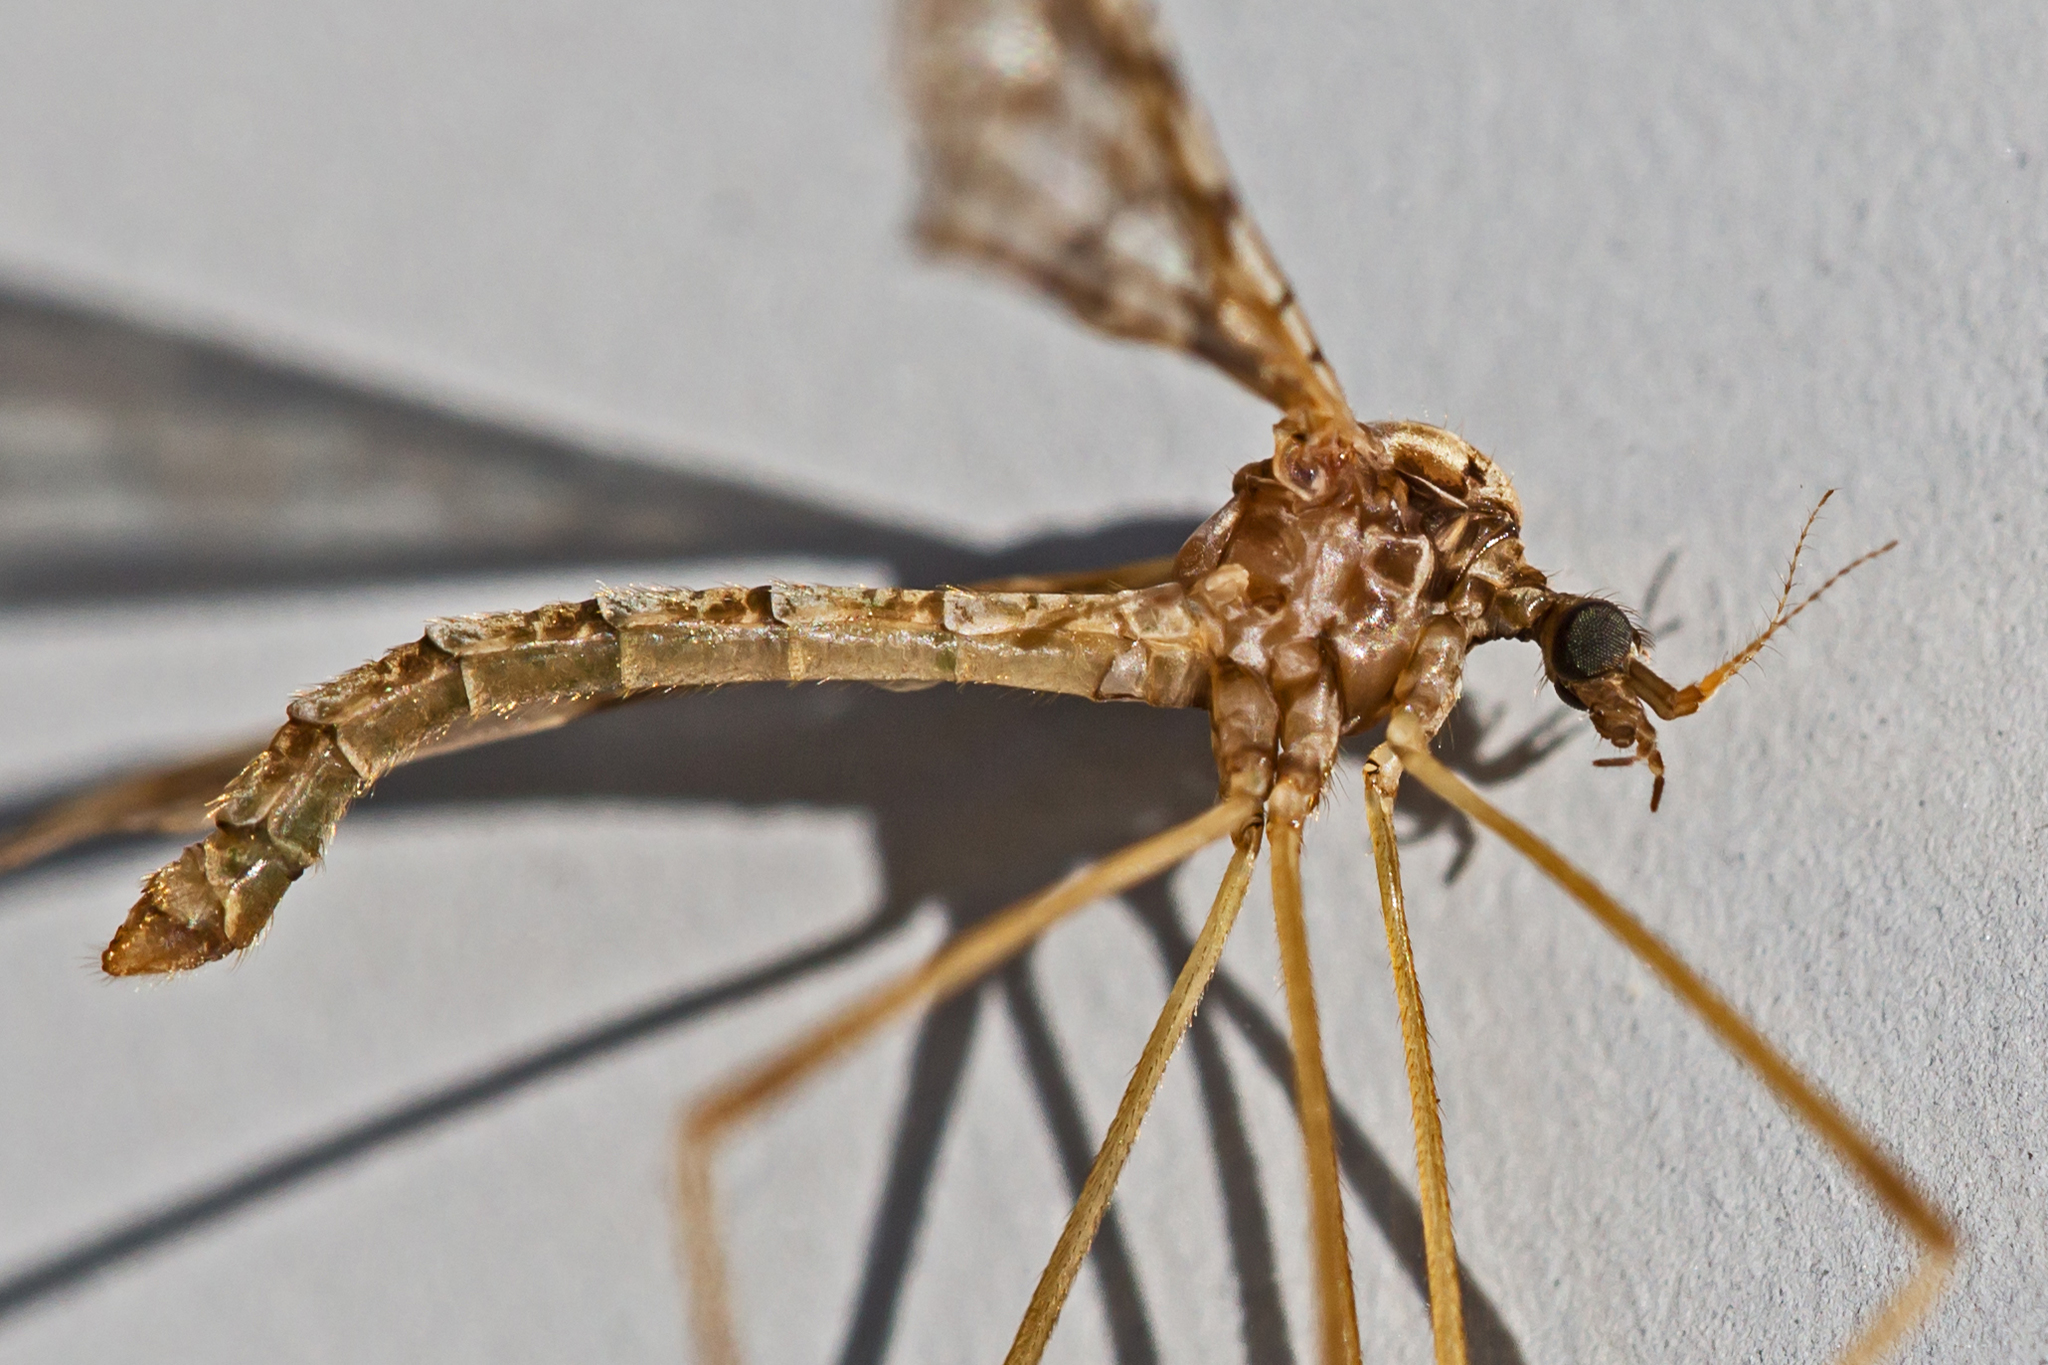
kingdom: Animalia
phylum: Arthropoda
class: Insecta
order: Diptera
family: Limoniidae
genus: Epiphragma
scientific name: Epiphragma solatrix
